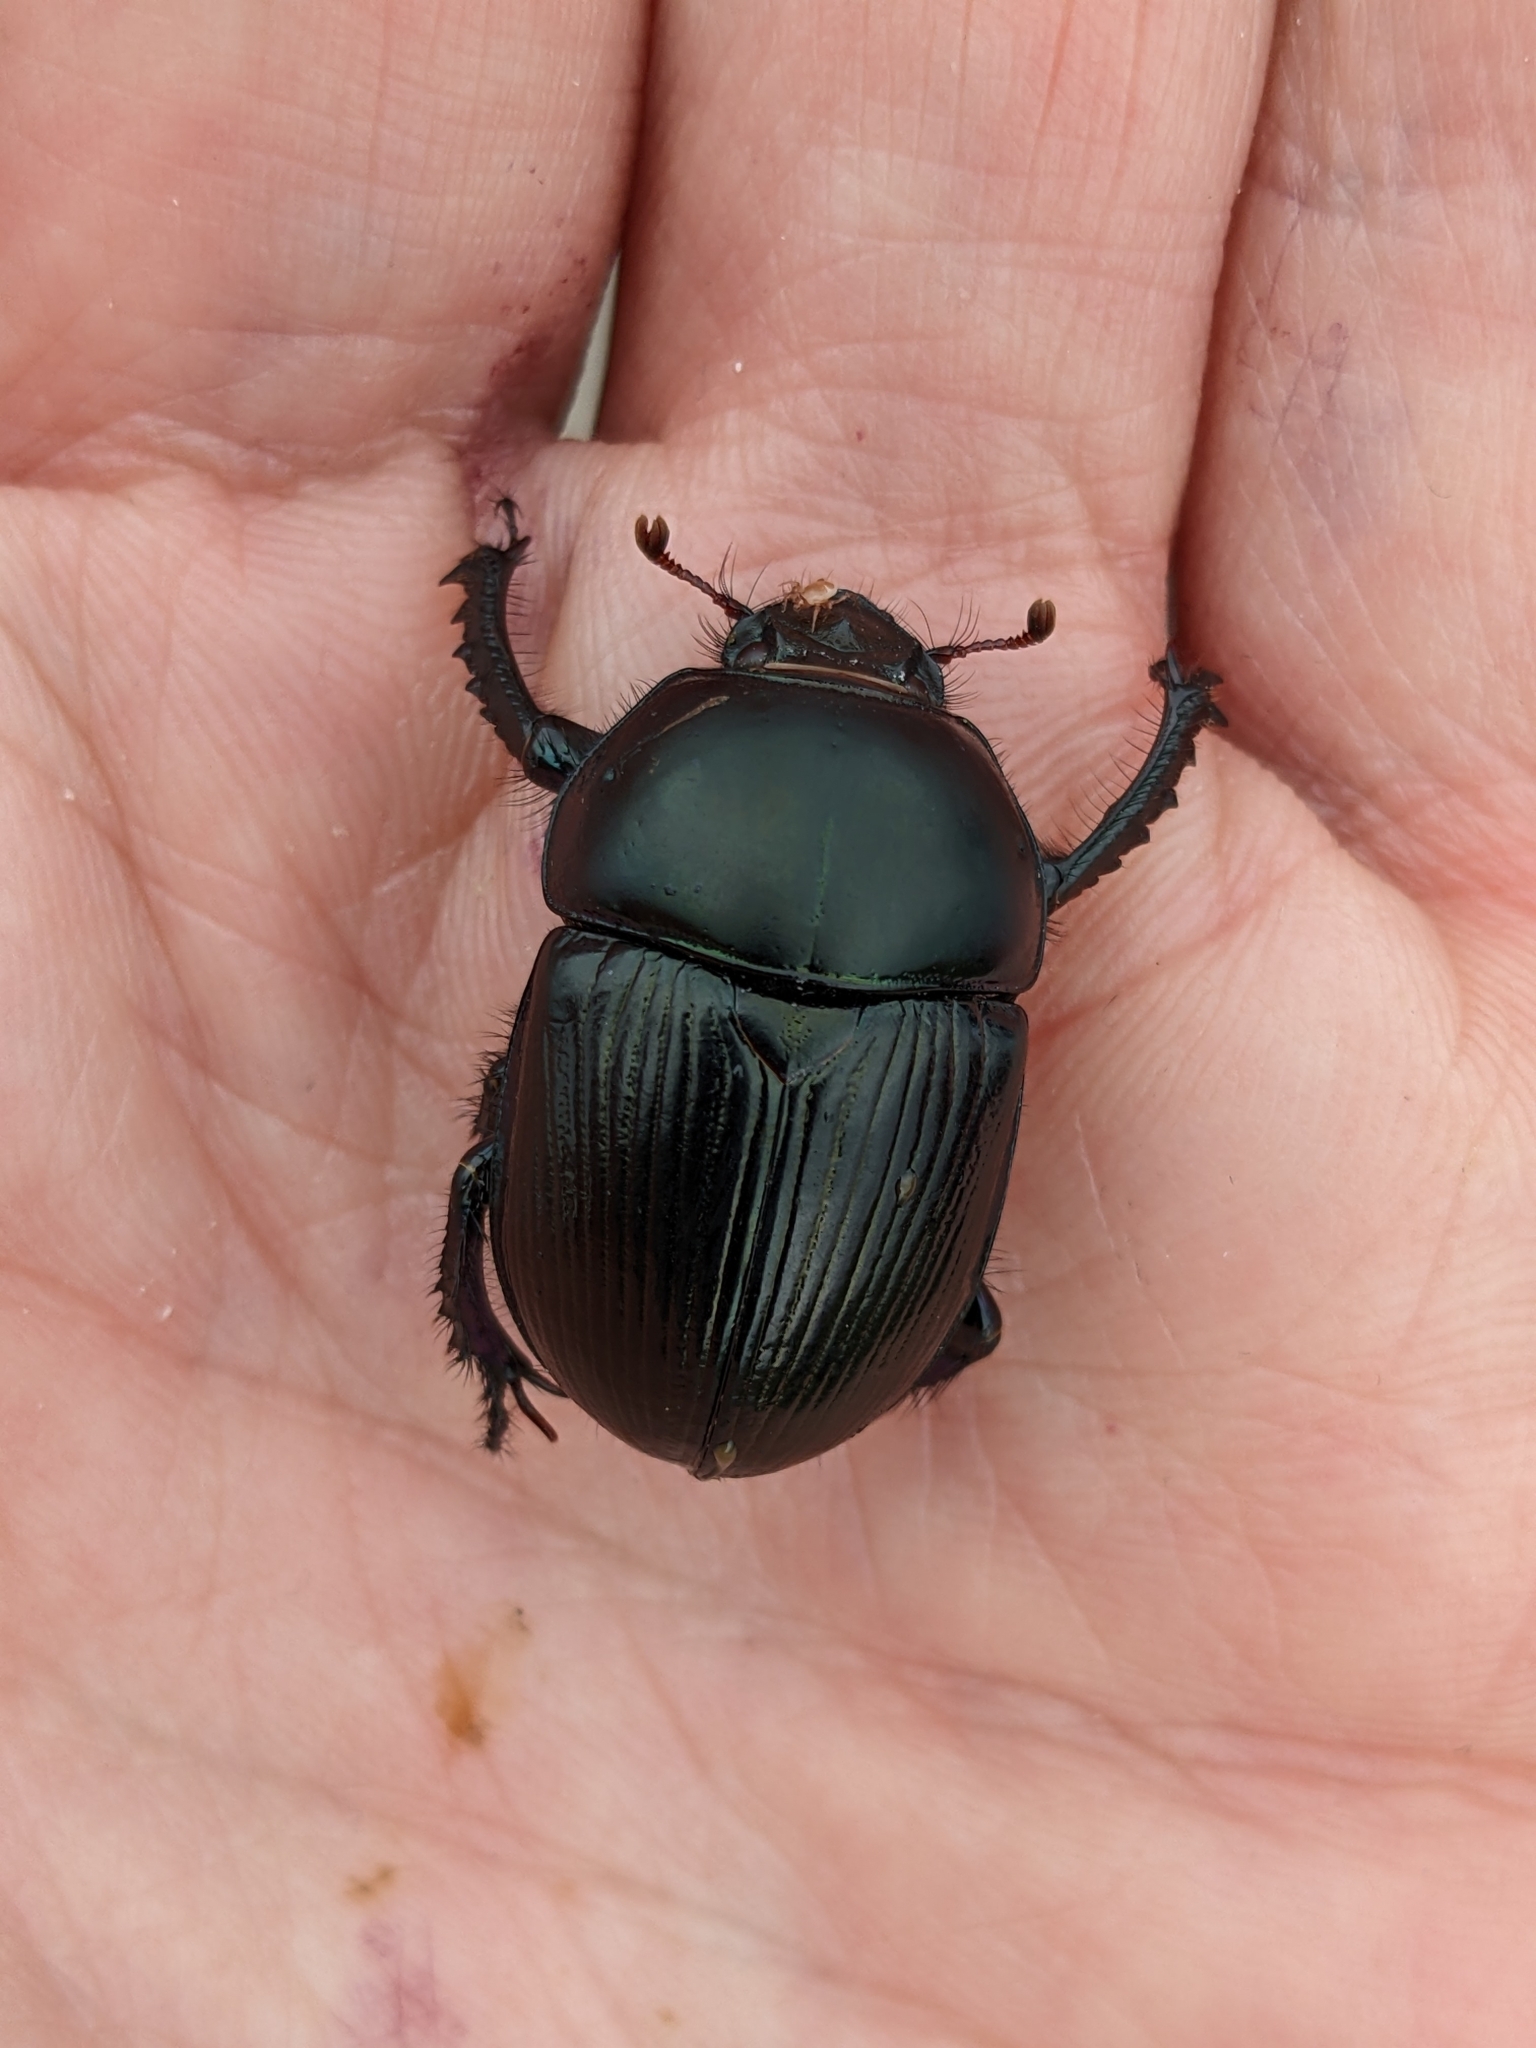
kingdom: Animalia
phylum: Arthropoda
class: Insecta
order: Coleoptera
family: Geotrupidae
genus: Geotrupes
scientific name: Geotrupes stercorarius
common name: Earth-boring dung beetle
